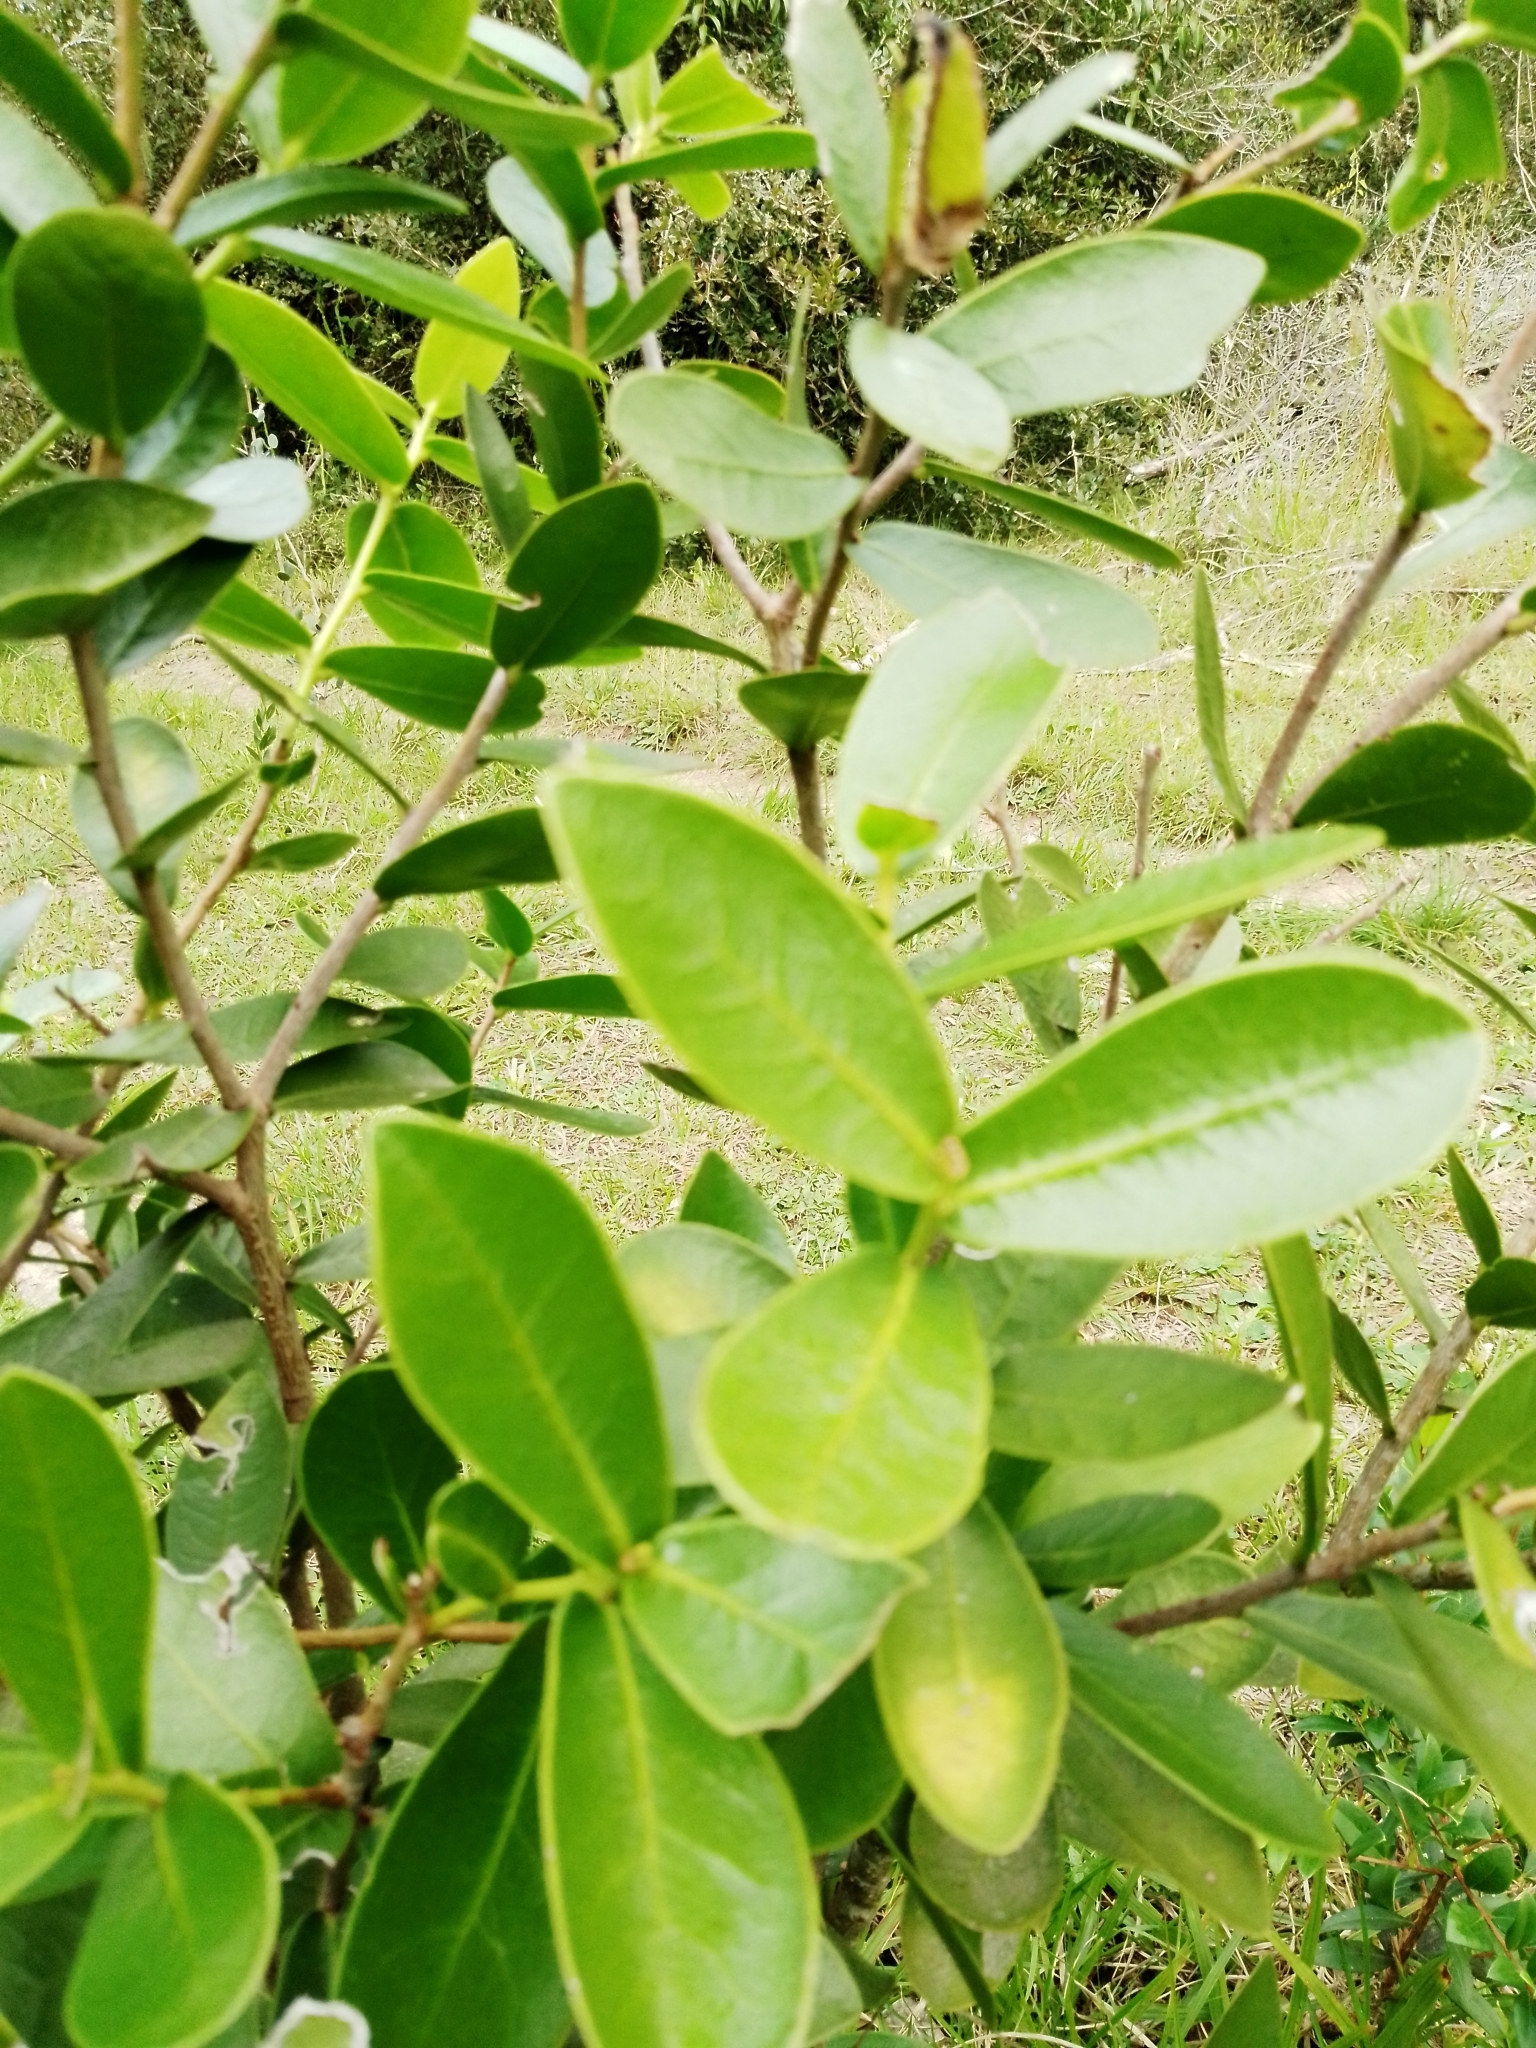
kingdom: Plantae
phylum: Tracheophyta
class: Magnoliopsida
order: Malvales
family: Thymelaeaceae
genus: Daphnopsis
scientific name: Daphnopsis racemosa
